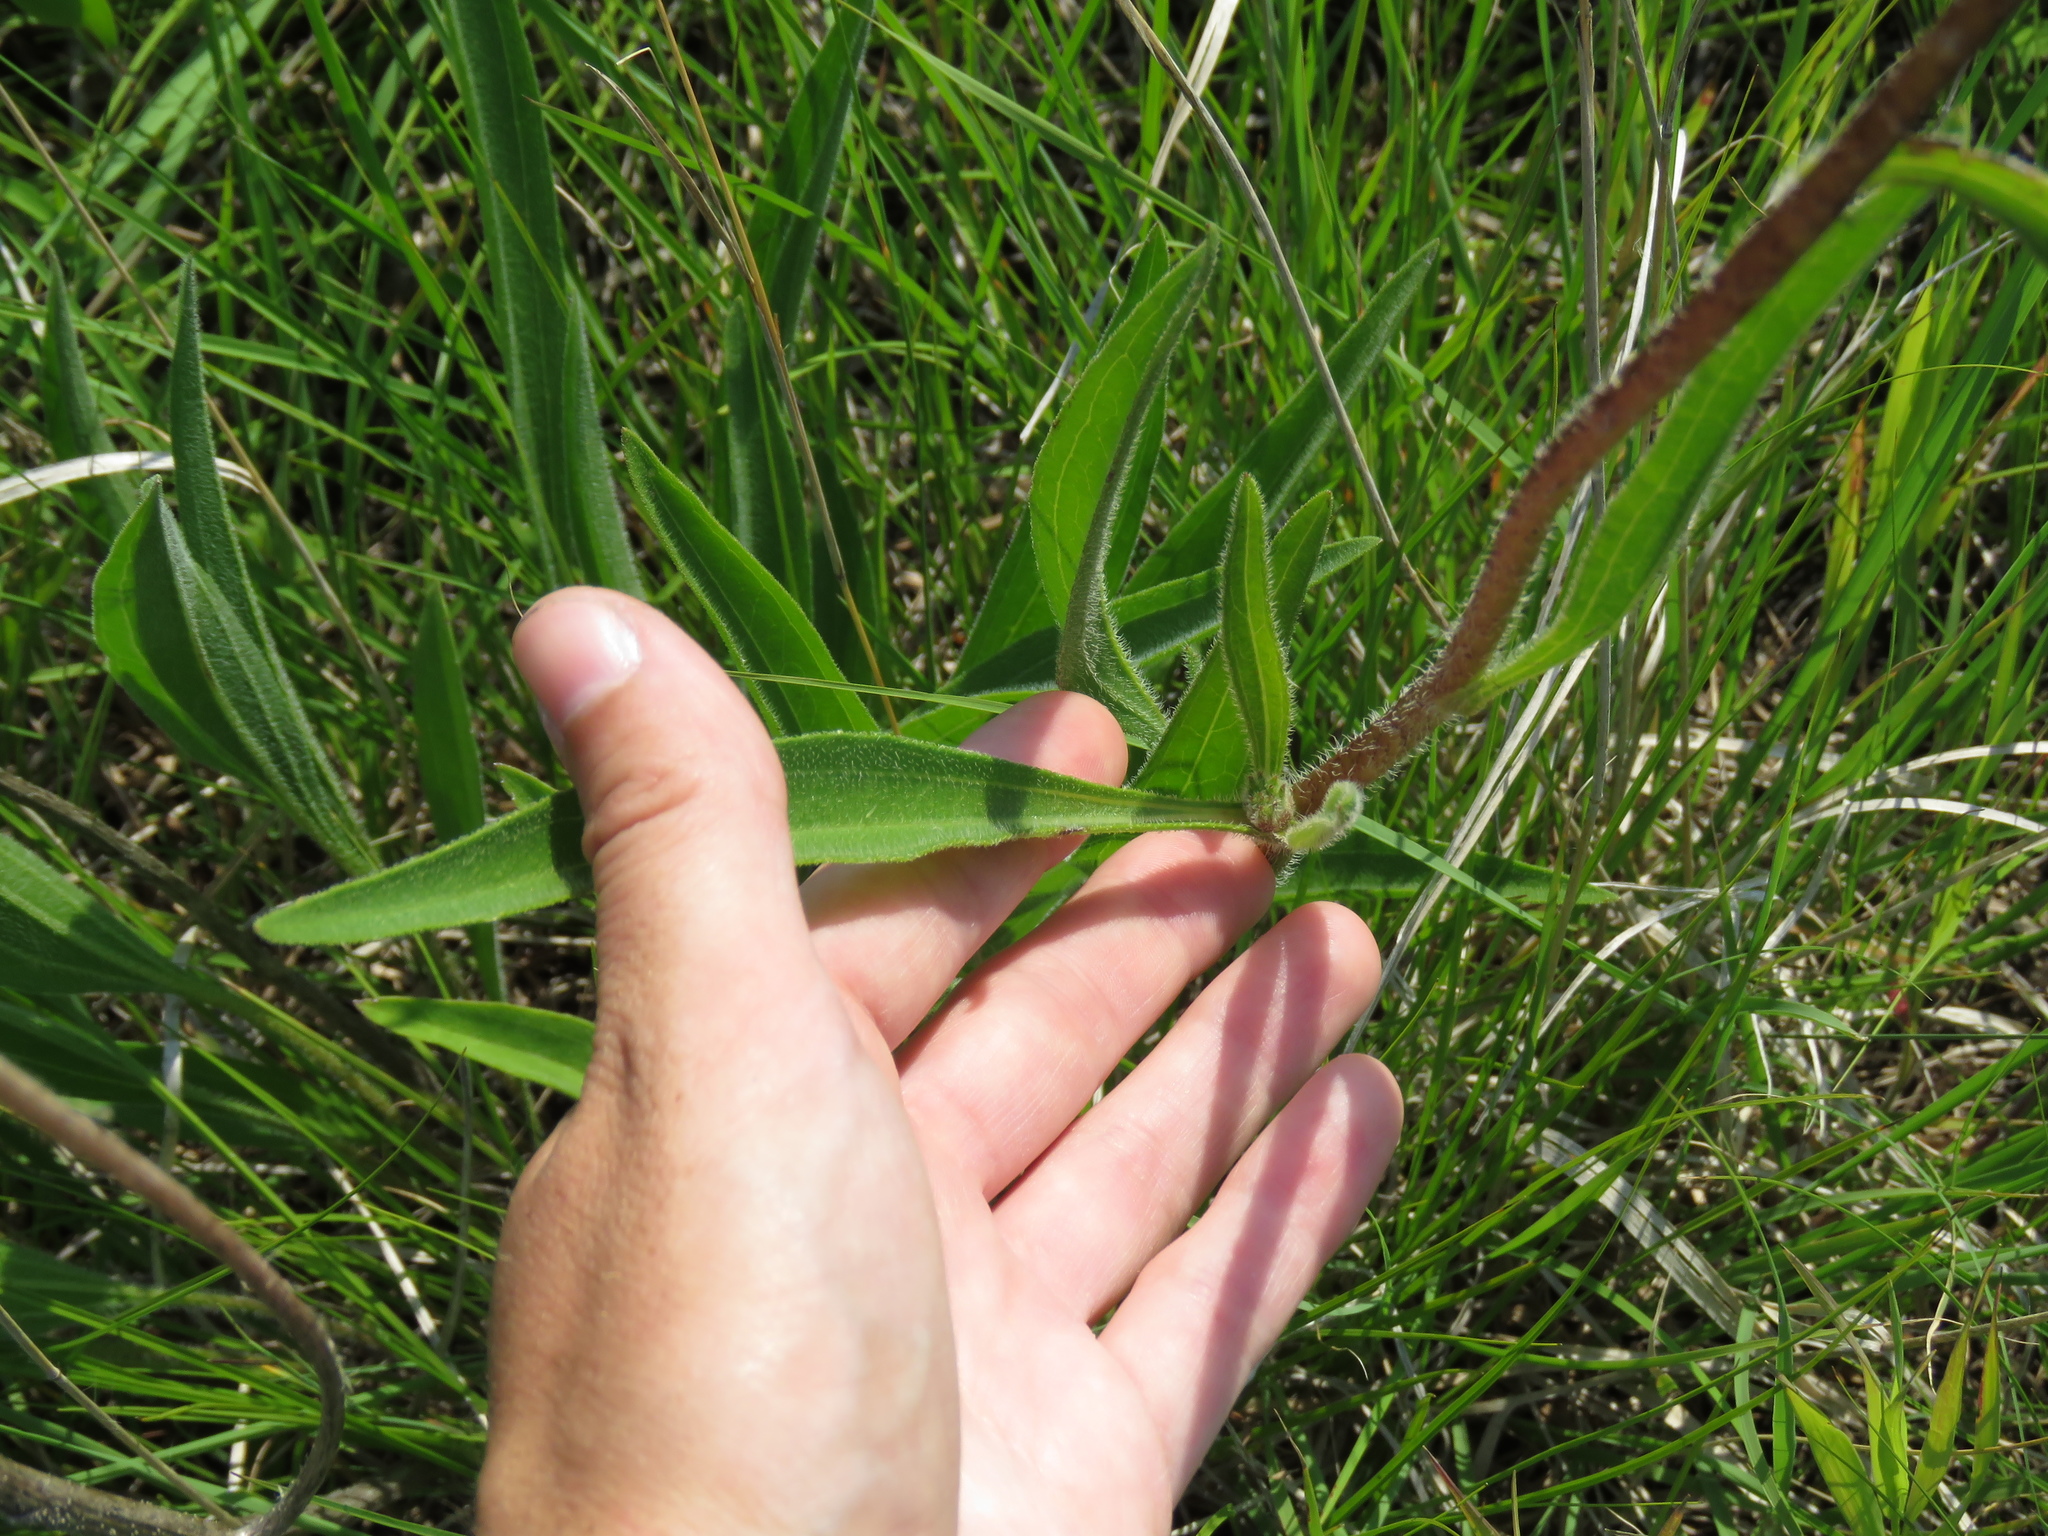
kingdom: Plantae
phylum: Tracheophyta
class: Magnoliopsida
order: Asterales
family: Asteraceae
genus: Echinacea
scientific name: Echinacea pallida
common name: Pale echinacea
